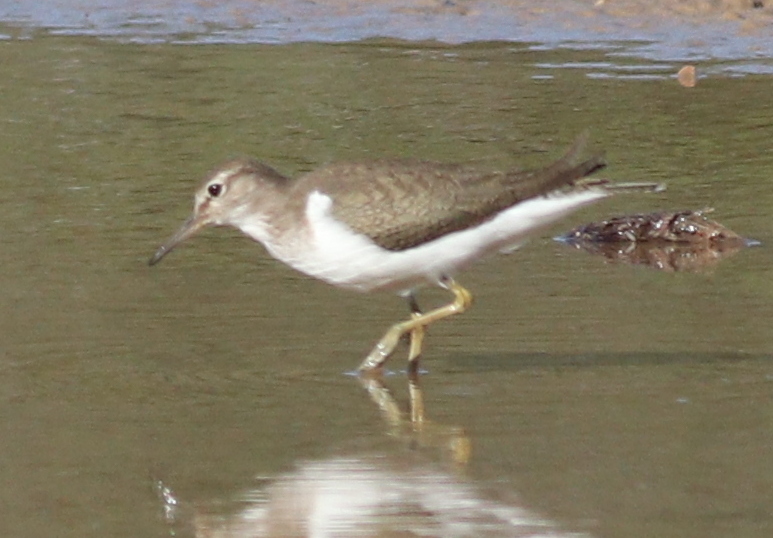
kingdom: Animalia
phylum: Chordata
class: Aves
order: Charadriiformes
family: Scolopacidae
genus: Actitis
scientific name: Actitis hypoleucos
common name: Common sandpiper
